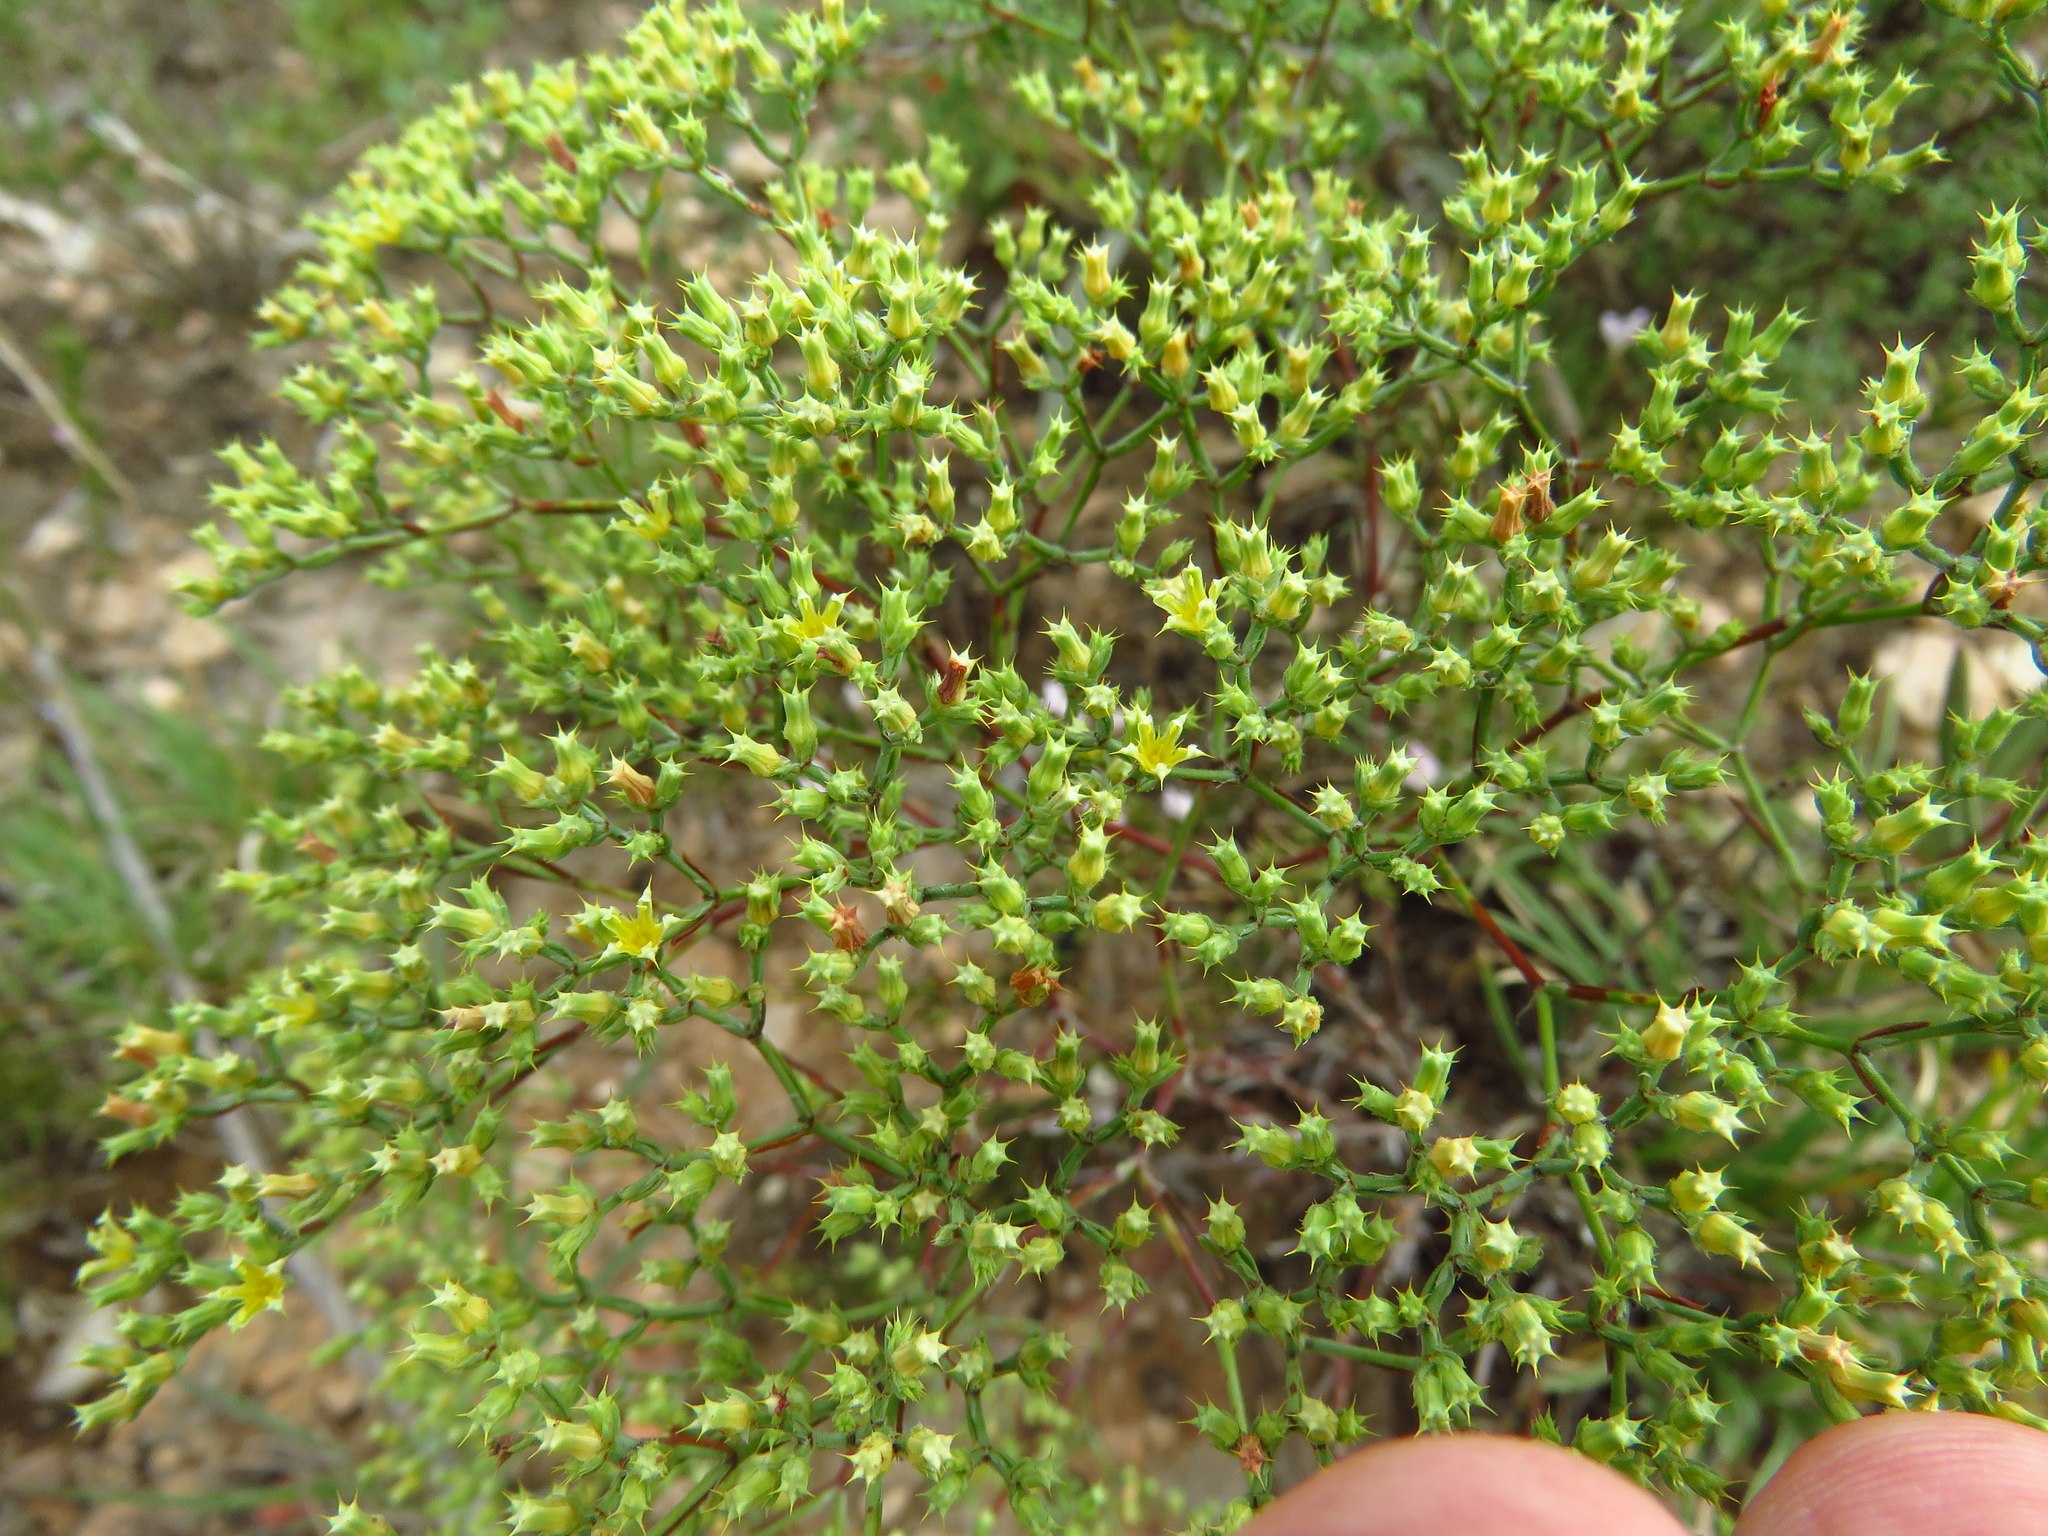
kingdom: Plantae
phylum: Tracheophyta
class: Magnoliopsida
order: Caryophyllales
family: Caryophyllaceae
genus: Paronychia
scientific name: Paronychia jamesii
